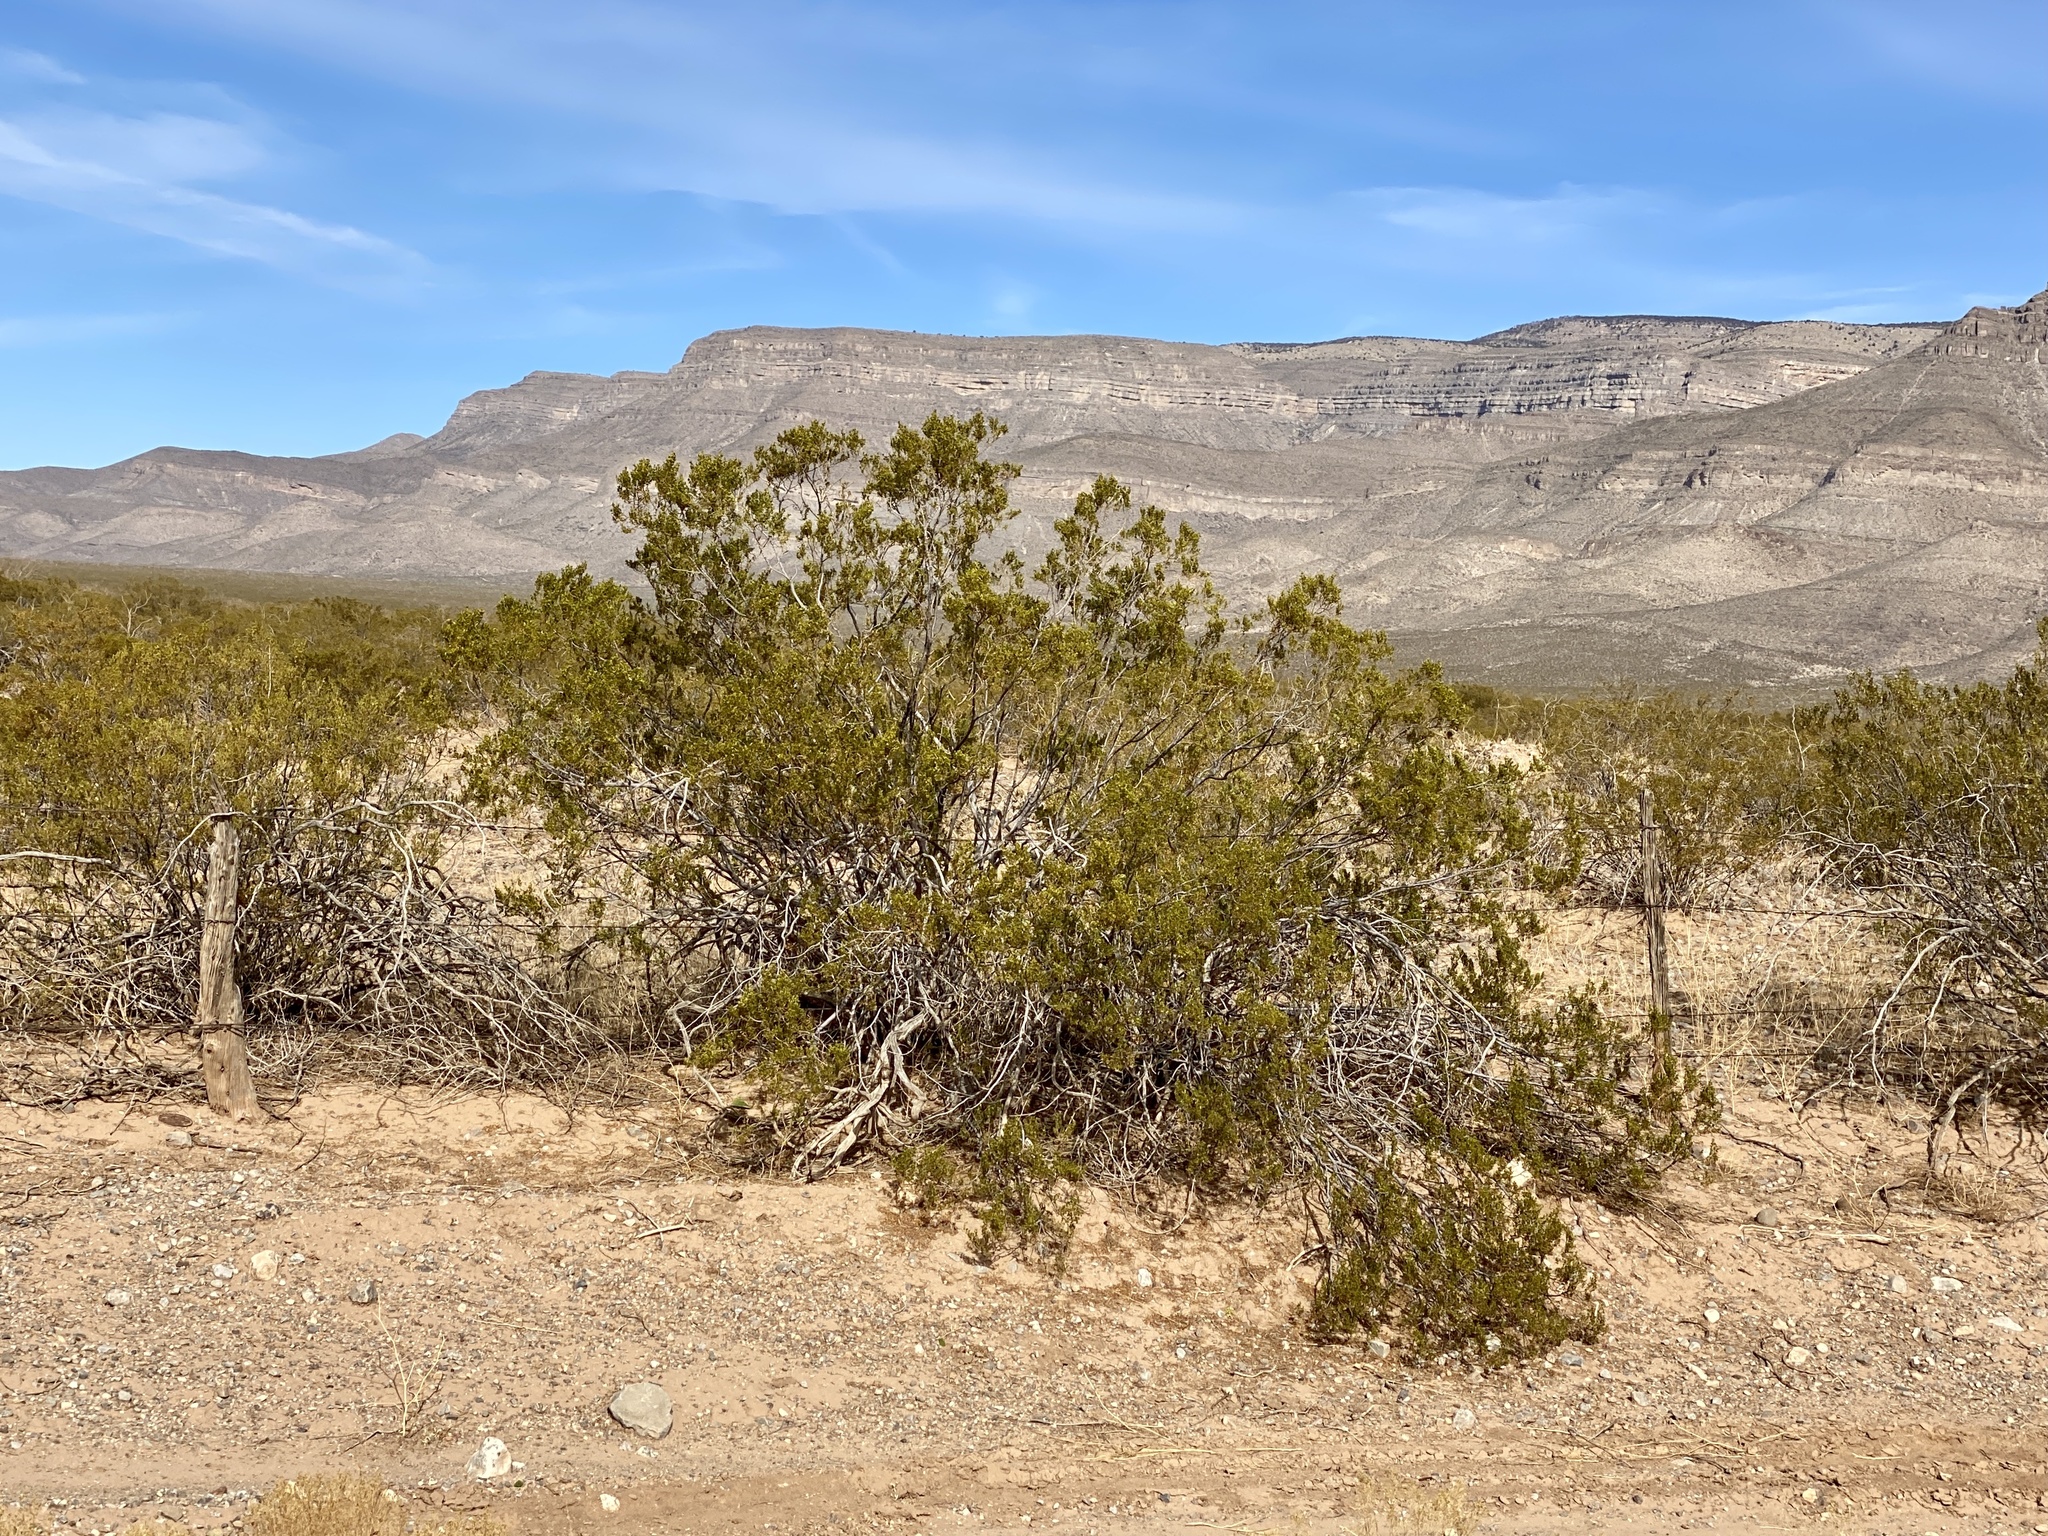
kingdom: Plantae
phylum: Tracheophyta
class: Magnoliopsida
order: Zygophyllales
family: Zygophyllaceae
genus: Larrea
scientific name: Larrea tridentata
